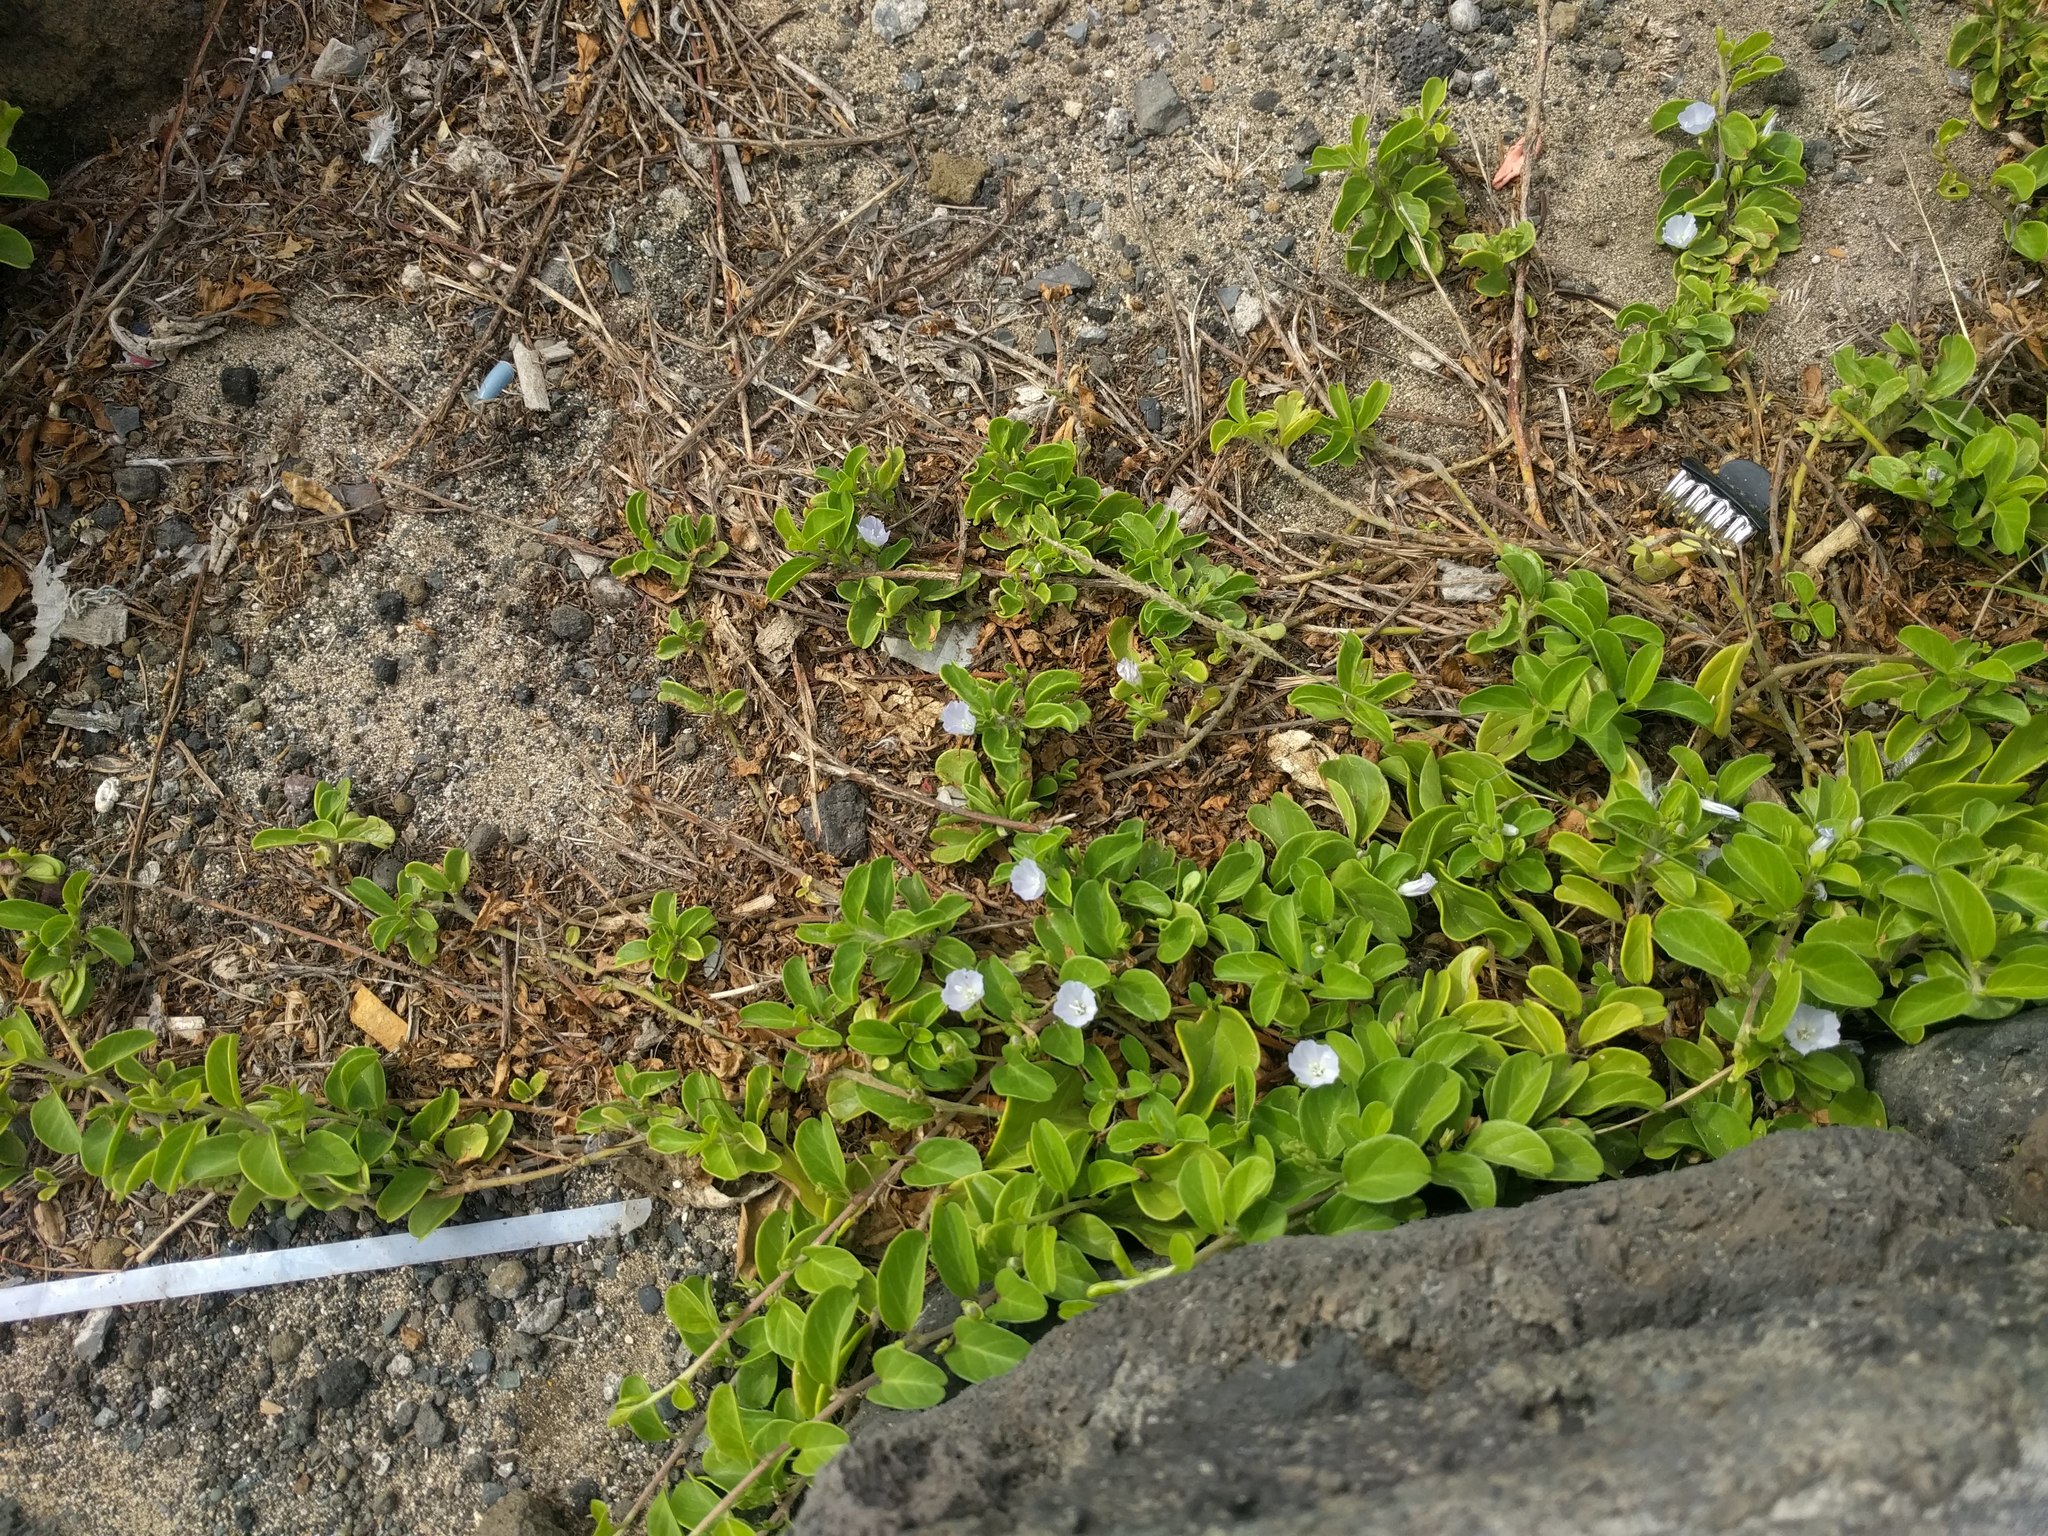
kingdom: Plantae
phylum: Tracheophyta
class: Magnoliopsida
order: Solanales
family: Convolvulaceae
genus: Jacquemontia
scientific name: Jacquemontia sandwicensis
